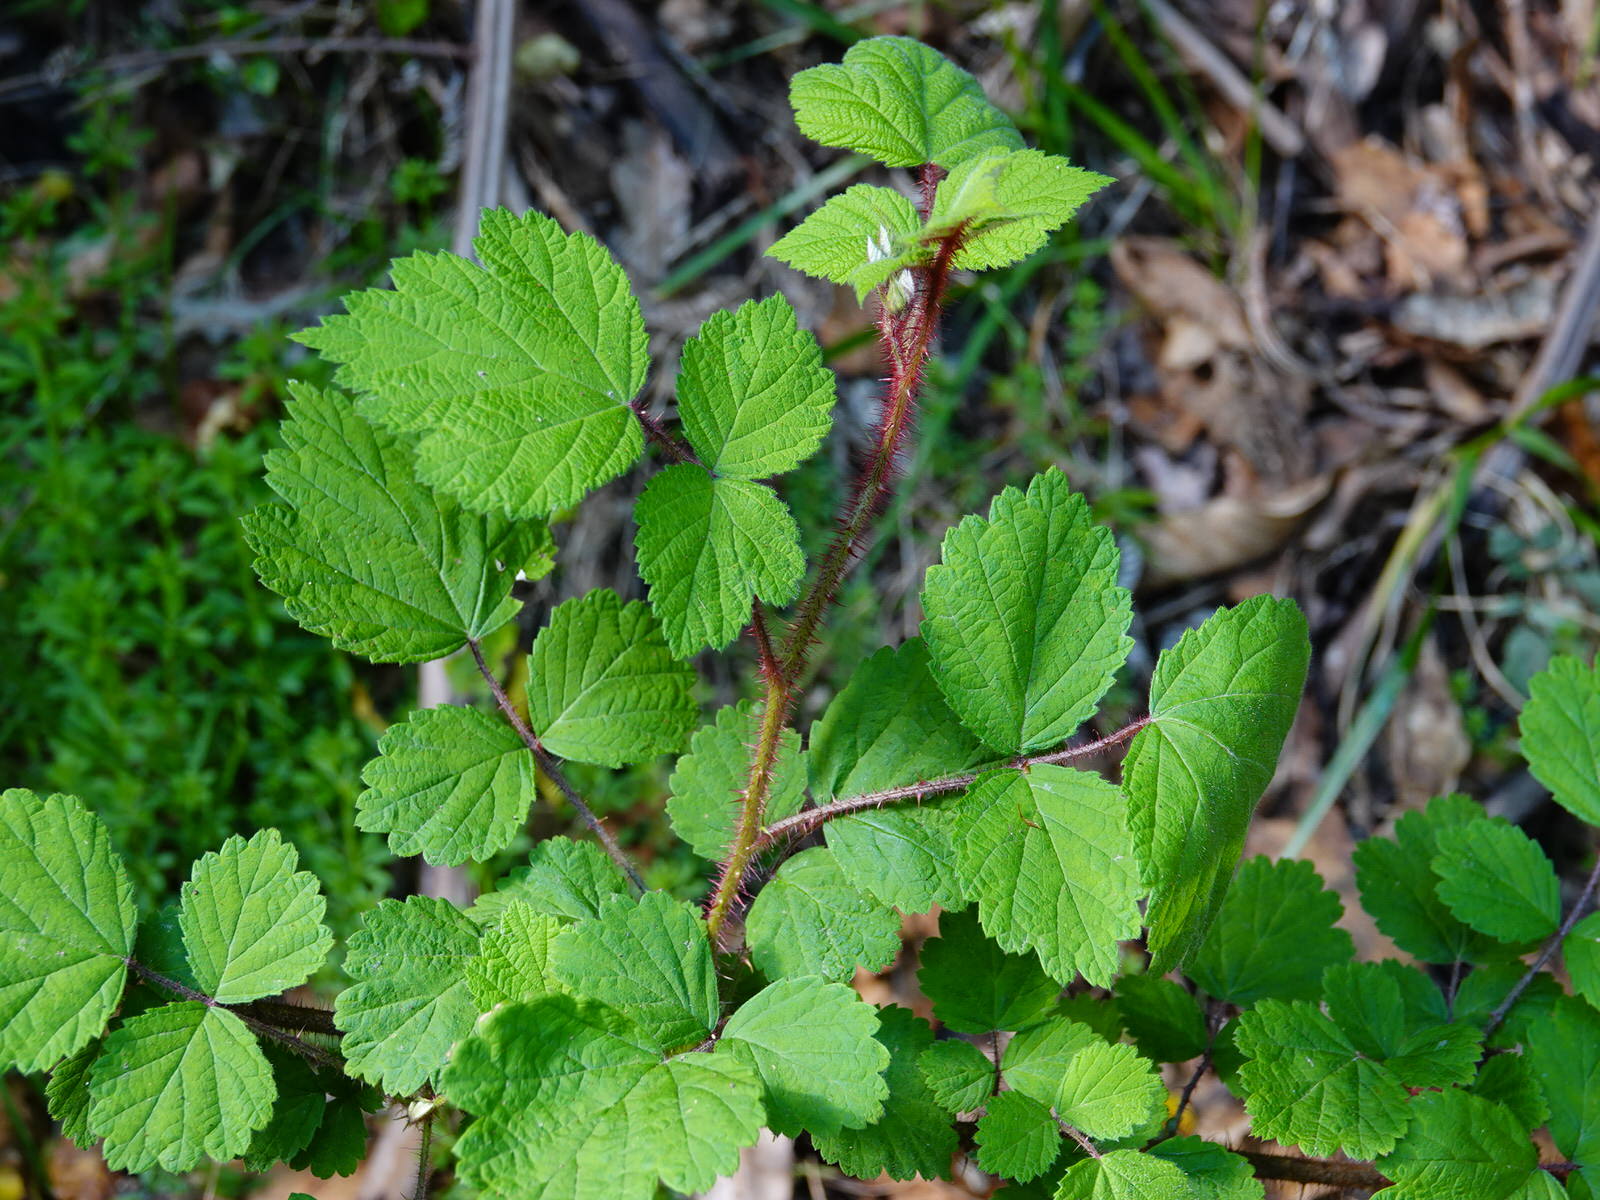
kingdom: Plantae
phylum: Tracheophyta
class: Magnoliopsida
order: Rosales
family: Rosaceae
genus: Rubus
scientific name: Rubus phoenicolasius
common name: Japanese wineberry
